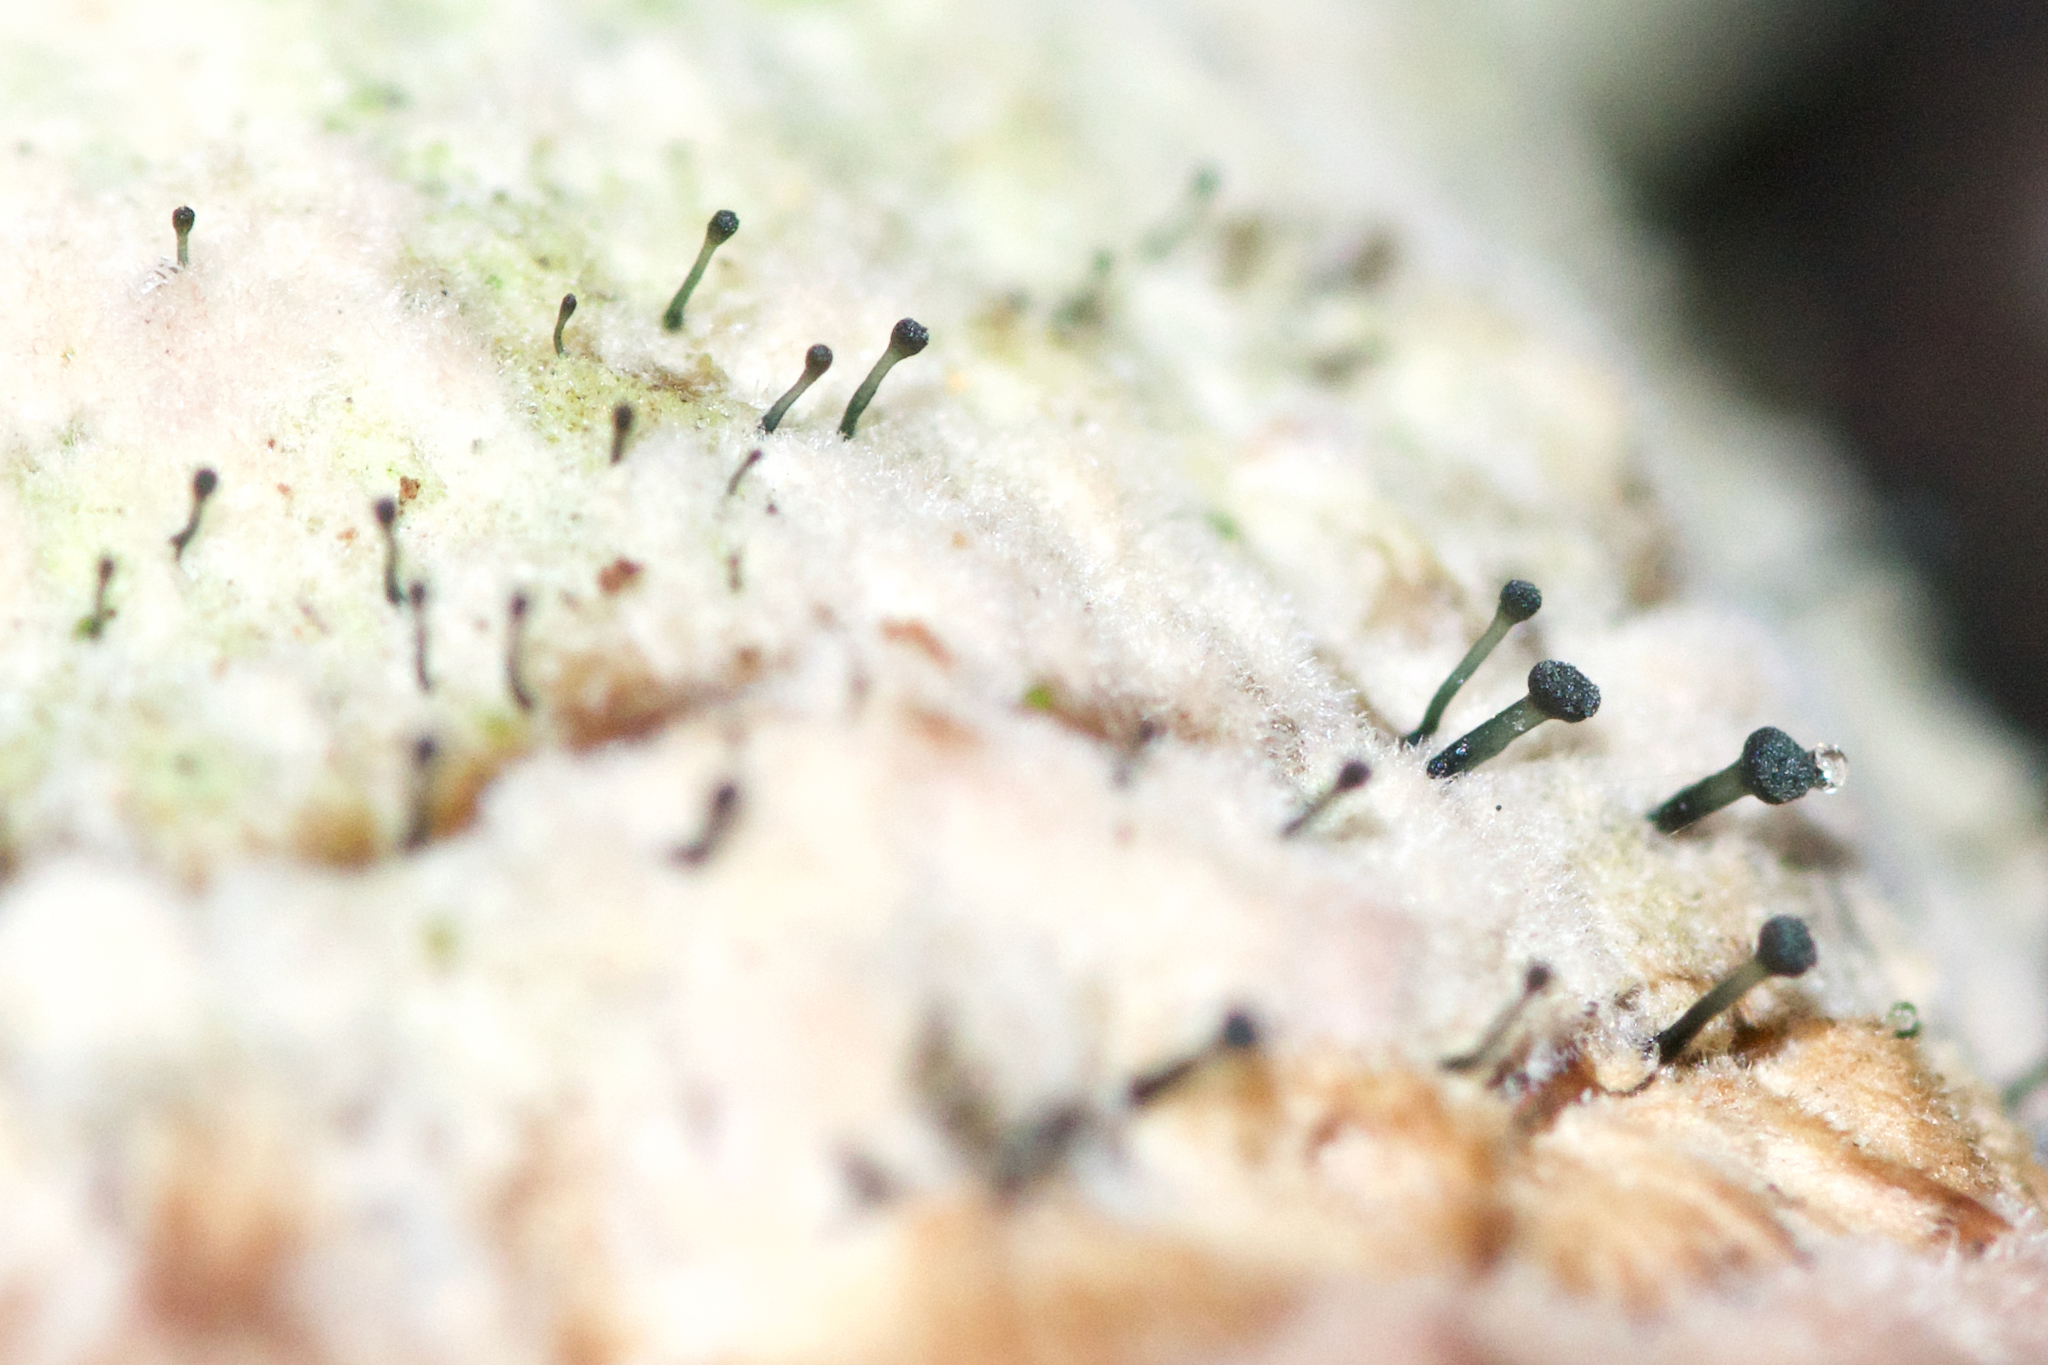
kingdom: Fungi
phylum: Ascomycota
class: Eurotiomycetes
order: Mycocaliciales
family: Mycocaliciaceae
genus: Phaeocalicium
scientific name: Phaeocalicium polyporaeum
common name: Fairy pins
